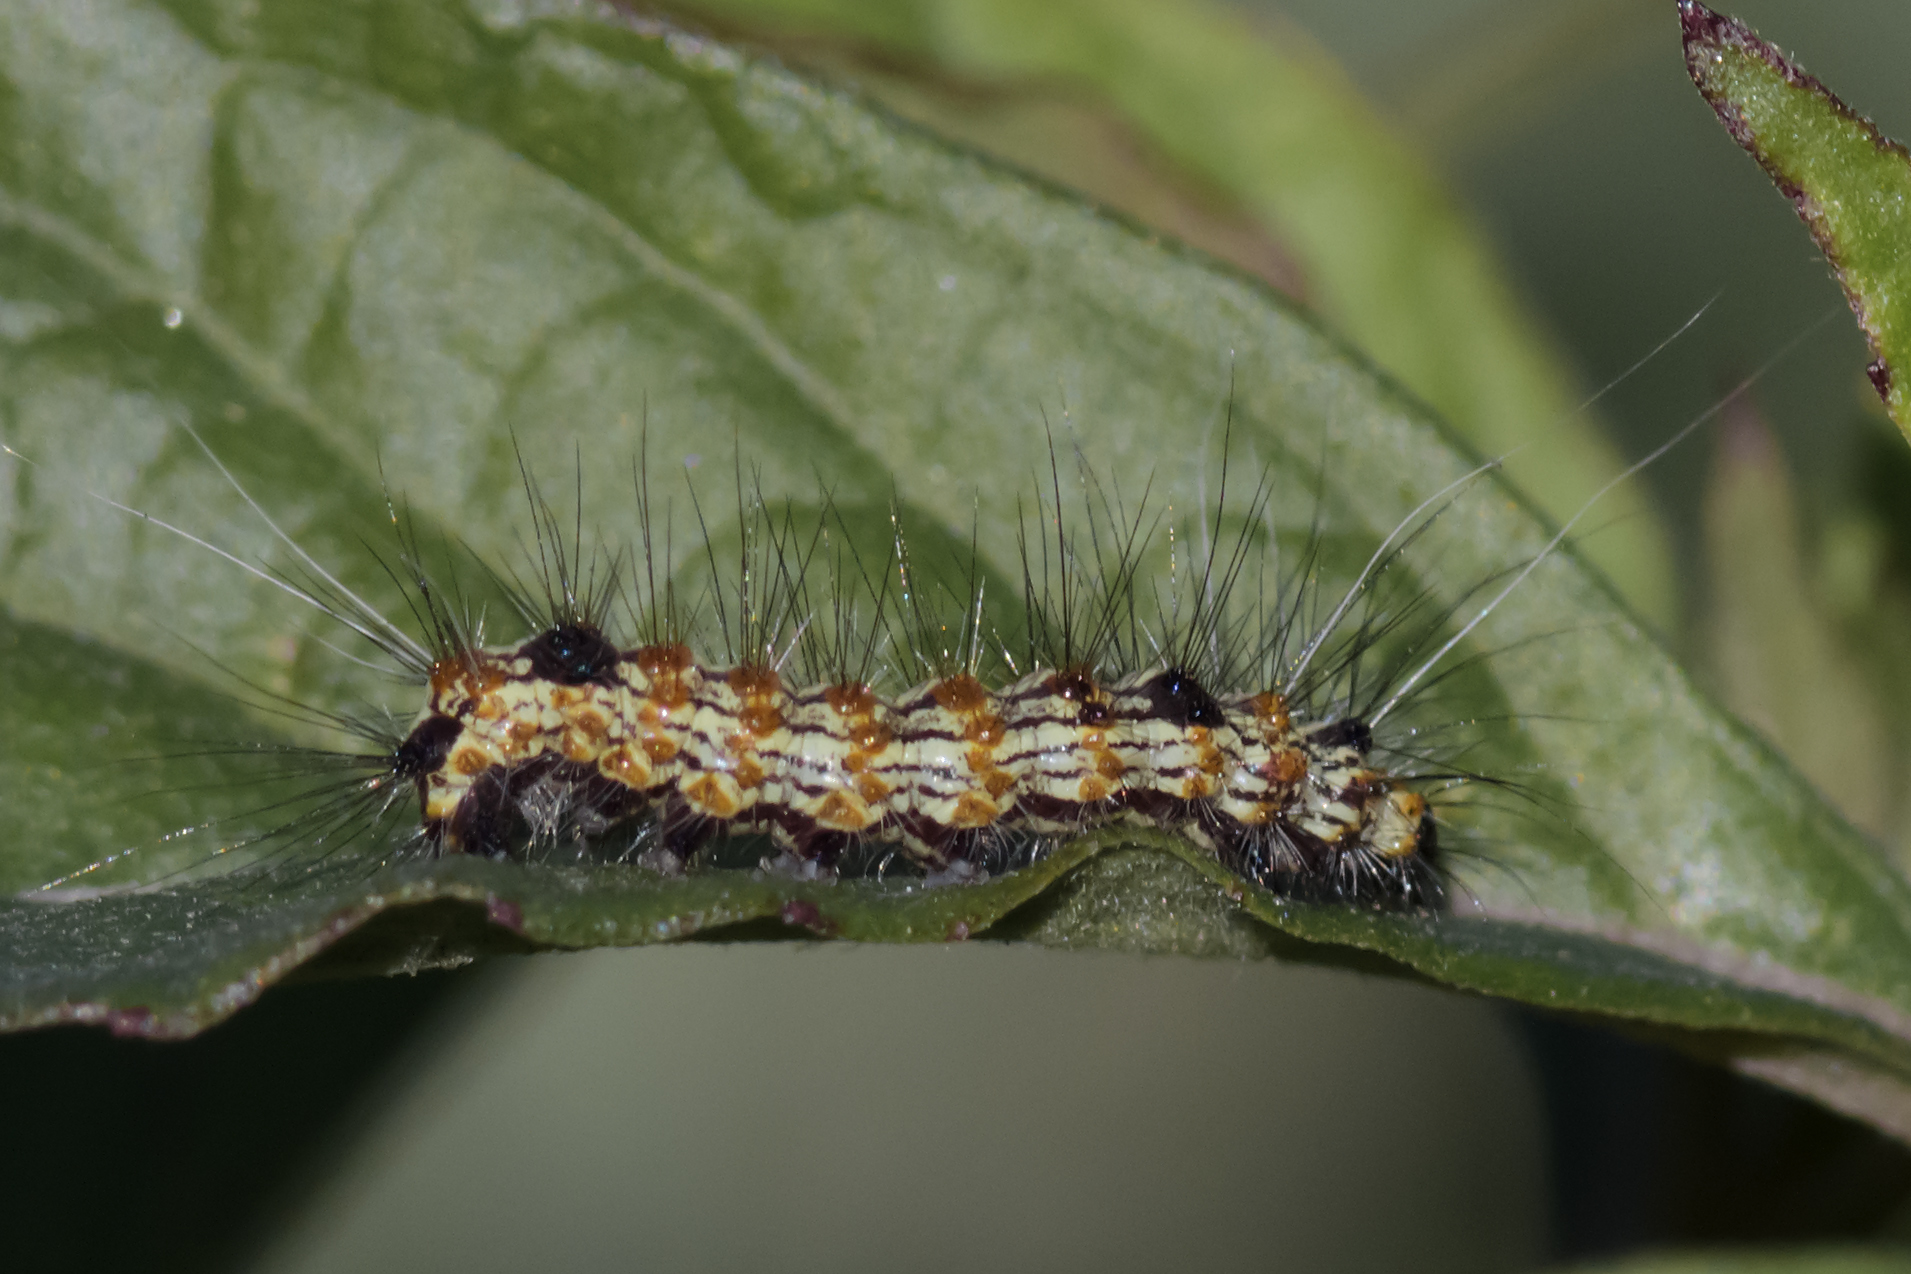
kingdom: Animalia
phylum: Arthropoda
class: Insecta
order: Lepidoptera
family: Erebidae
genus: Dysschema
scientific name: Dysschema sacrifica
